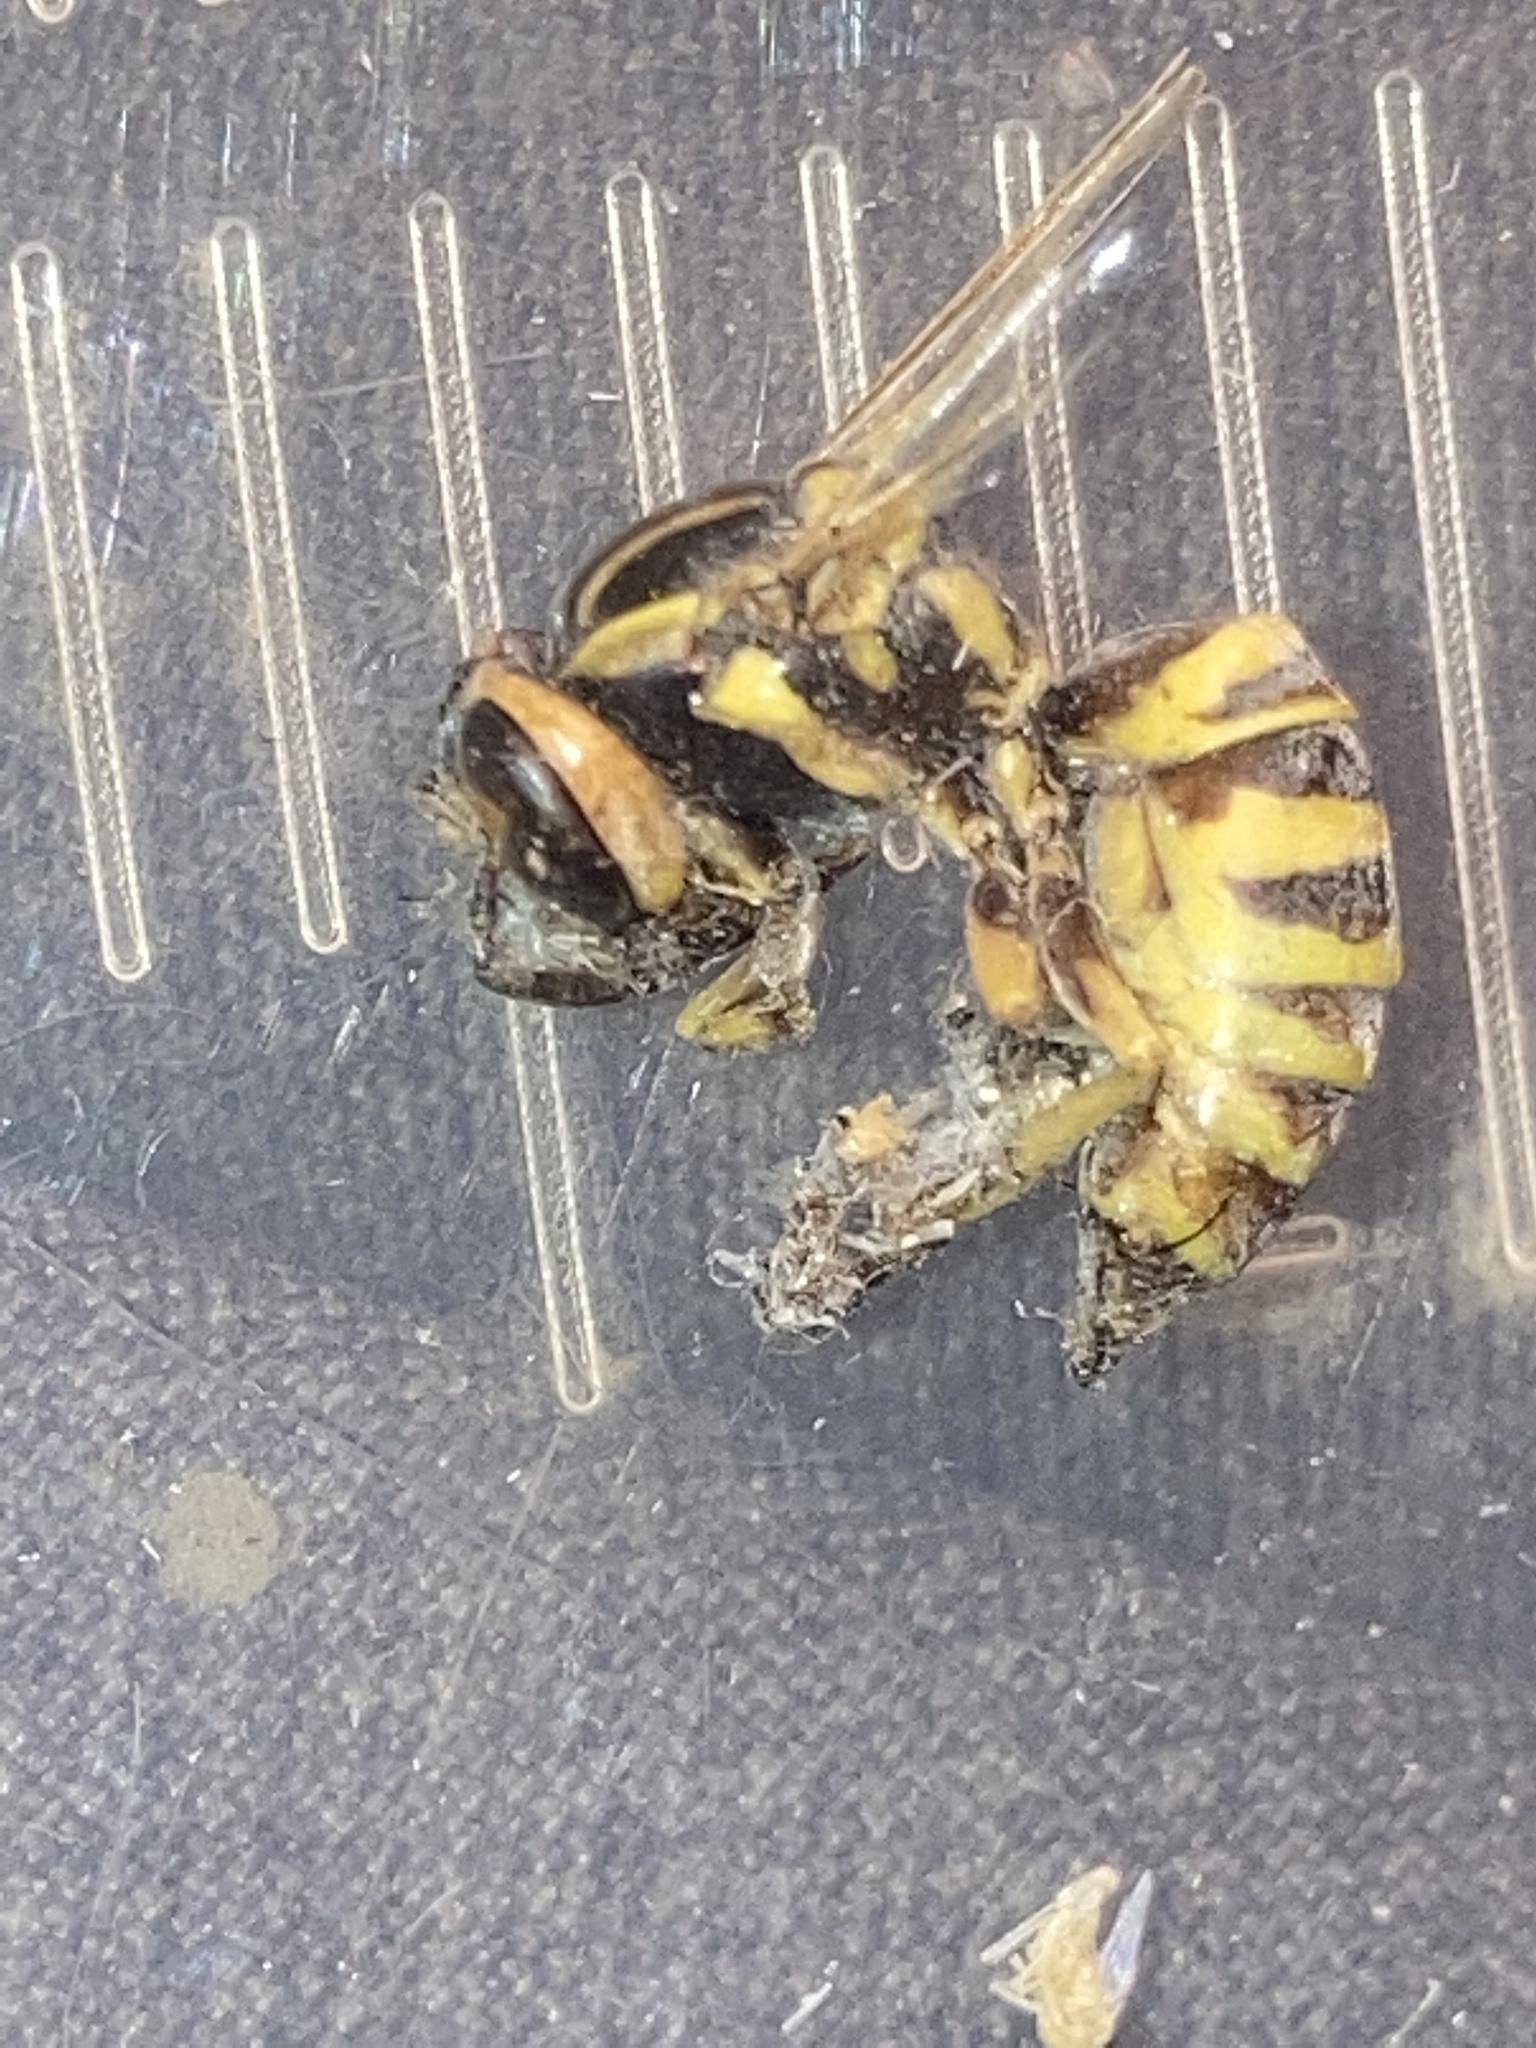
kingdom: Animalia
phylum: Arthropoda
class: Insecta
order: Hymenoptera
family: Vespidae
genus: Vespula
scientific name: Vespula squamosa
